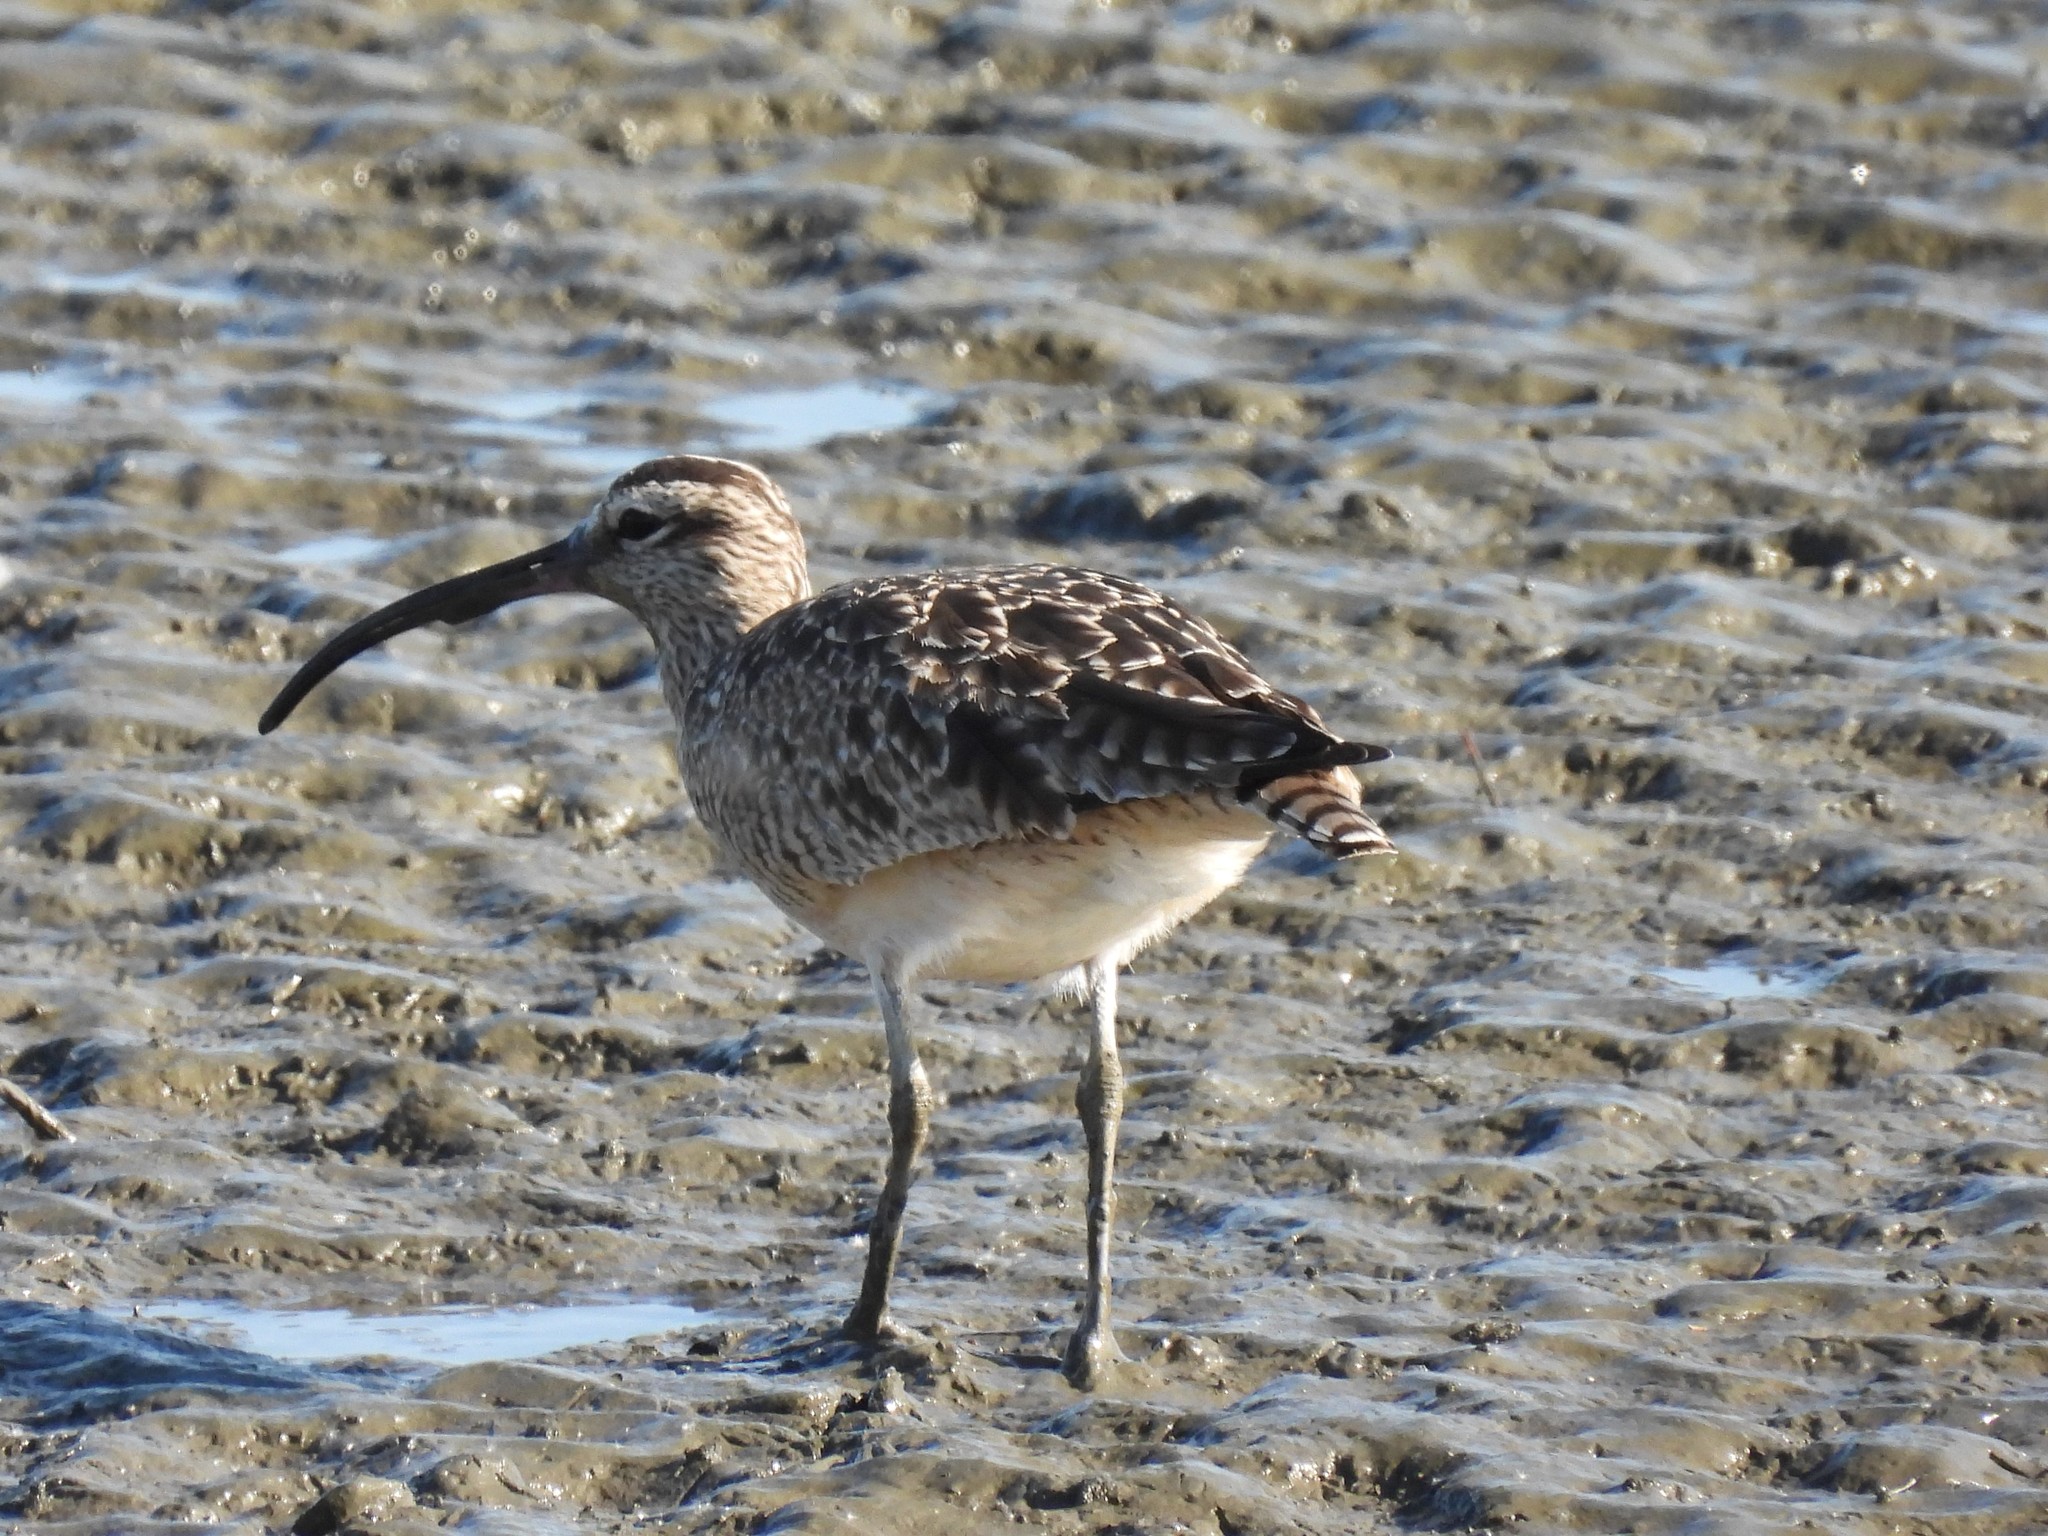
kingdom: Animalia
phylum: Chordata
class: Aves
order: Charadriiformes
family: Scolopacidae
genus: Numenius
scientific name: Numenius phaeopus
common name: Whimbrel
